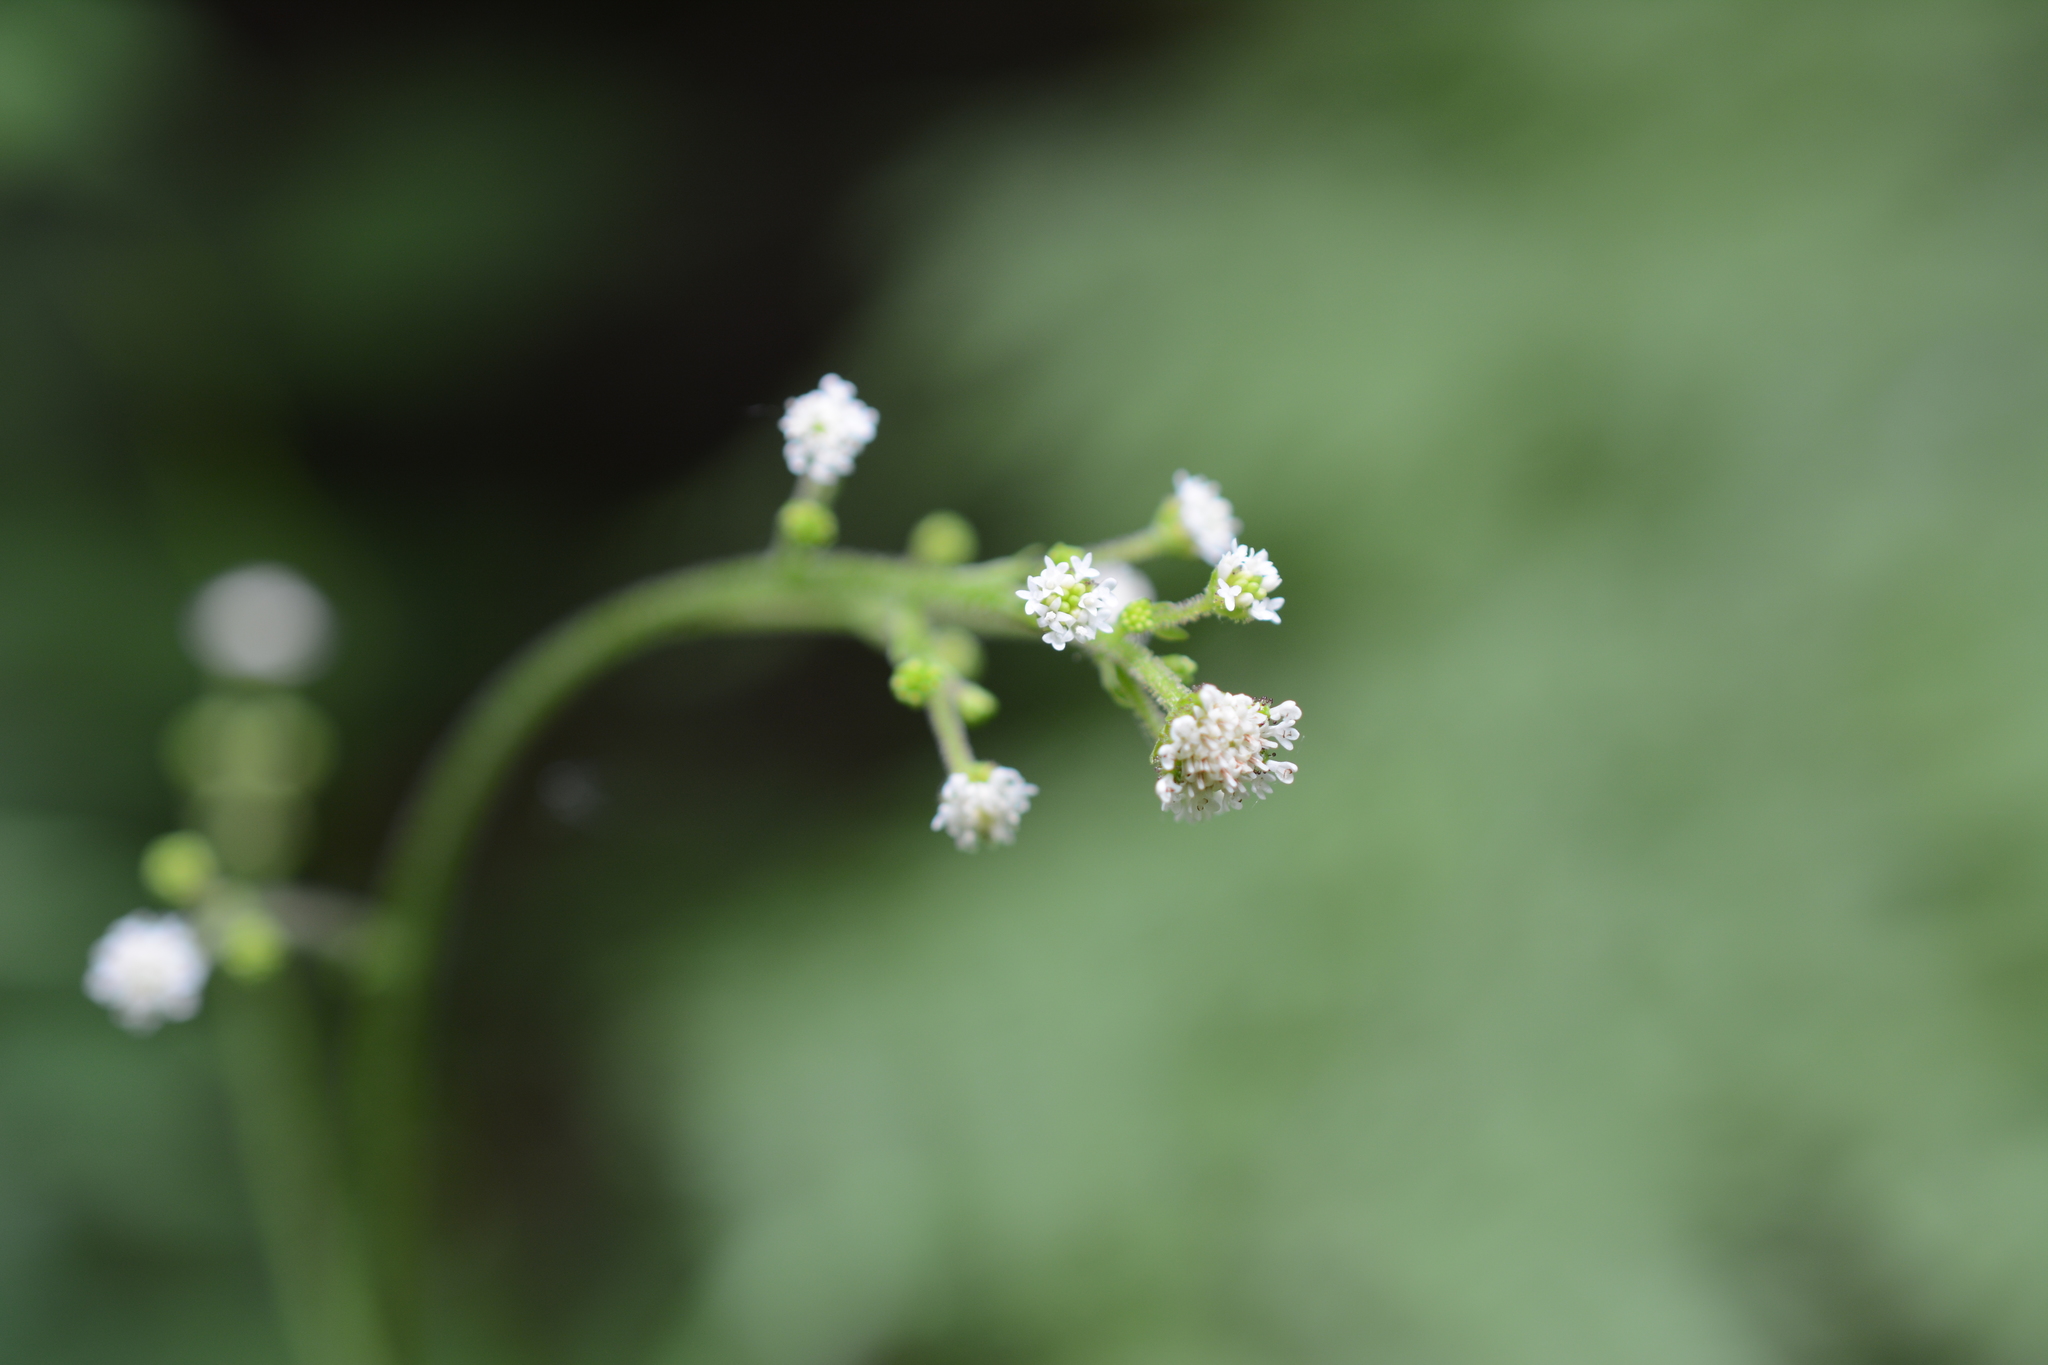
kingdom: Plantae
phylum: Tracheophyta
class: Magnoliopsida
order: Asterales
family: Asteraceae
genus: Adenocaulon
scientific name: Adenocaulon bicolor
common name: Trailplant
